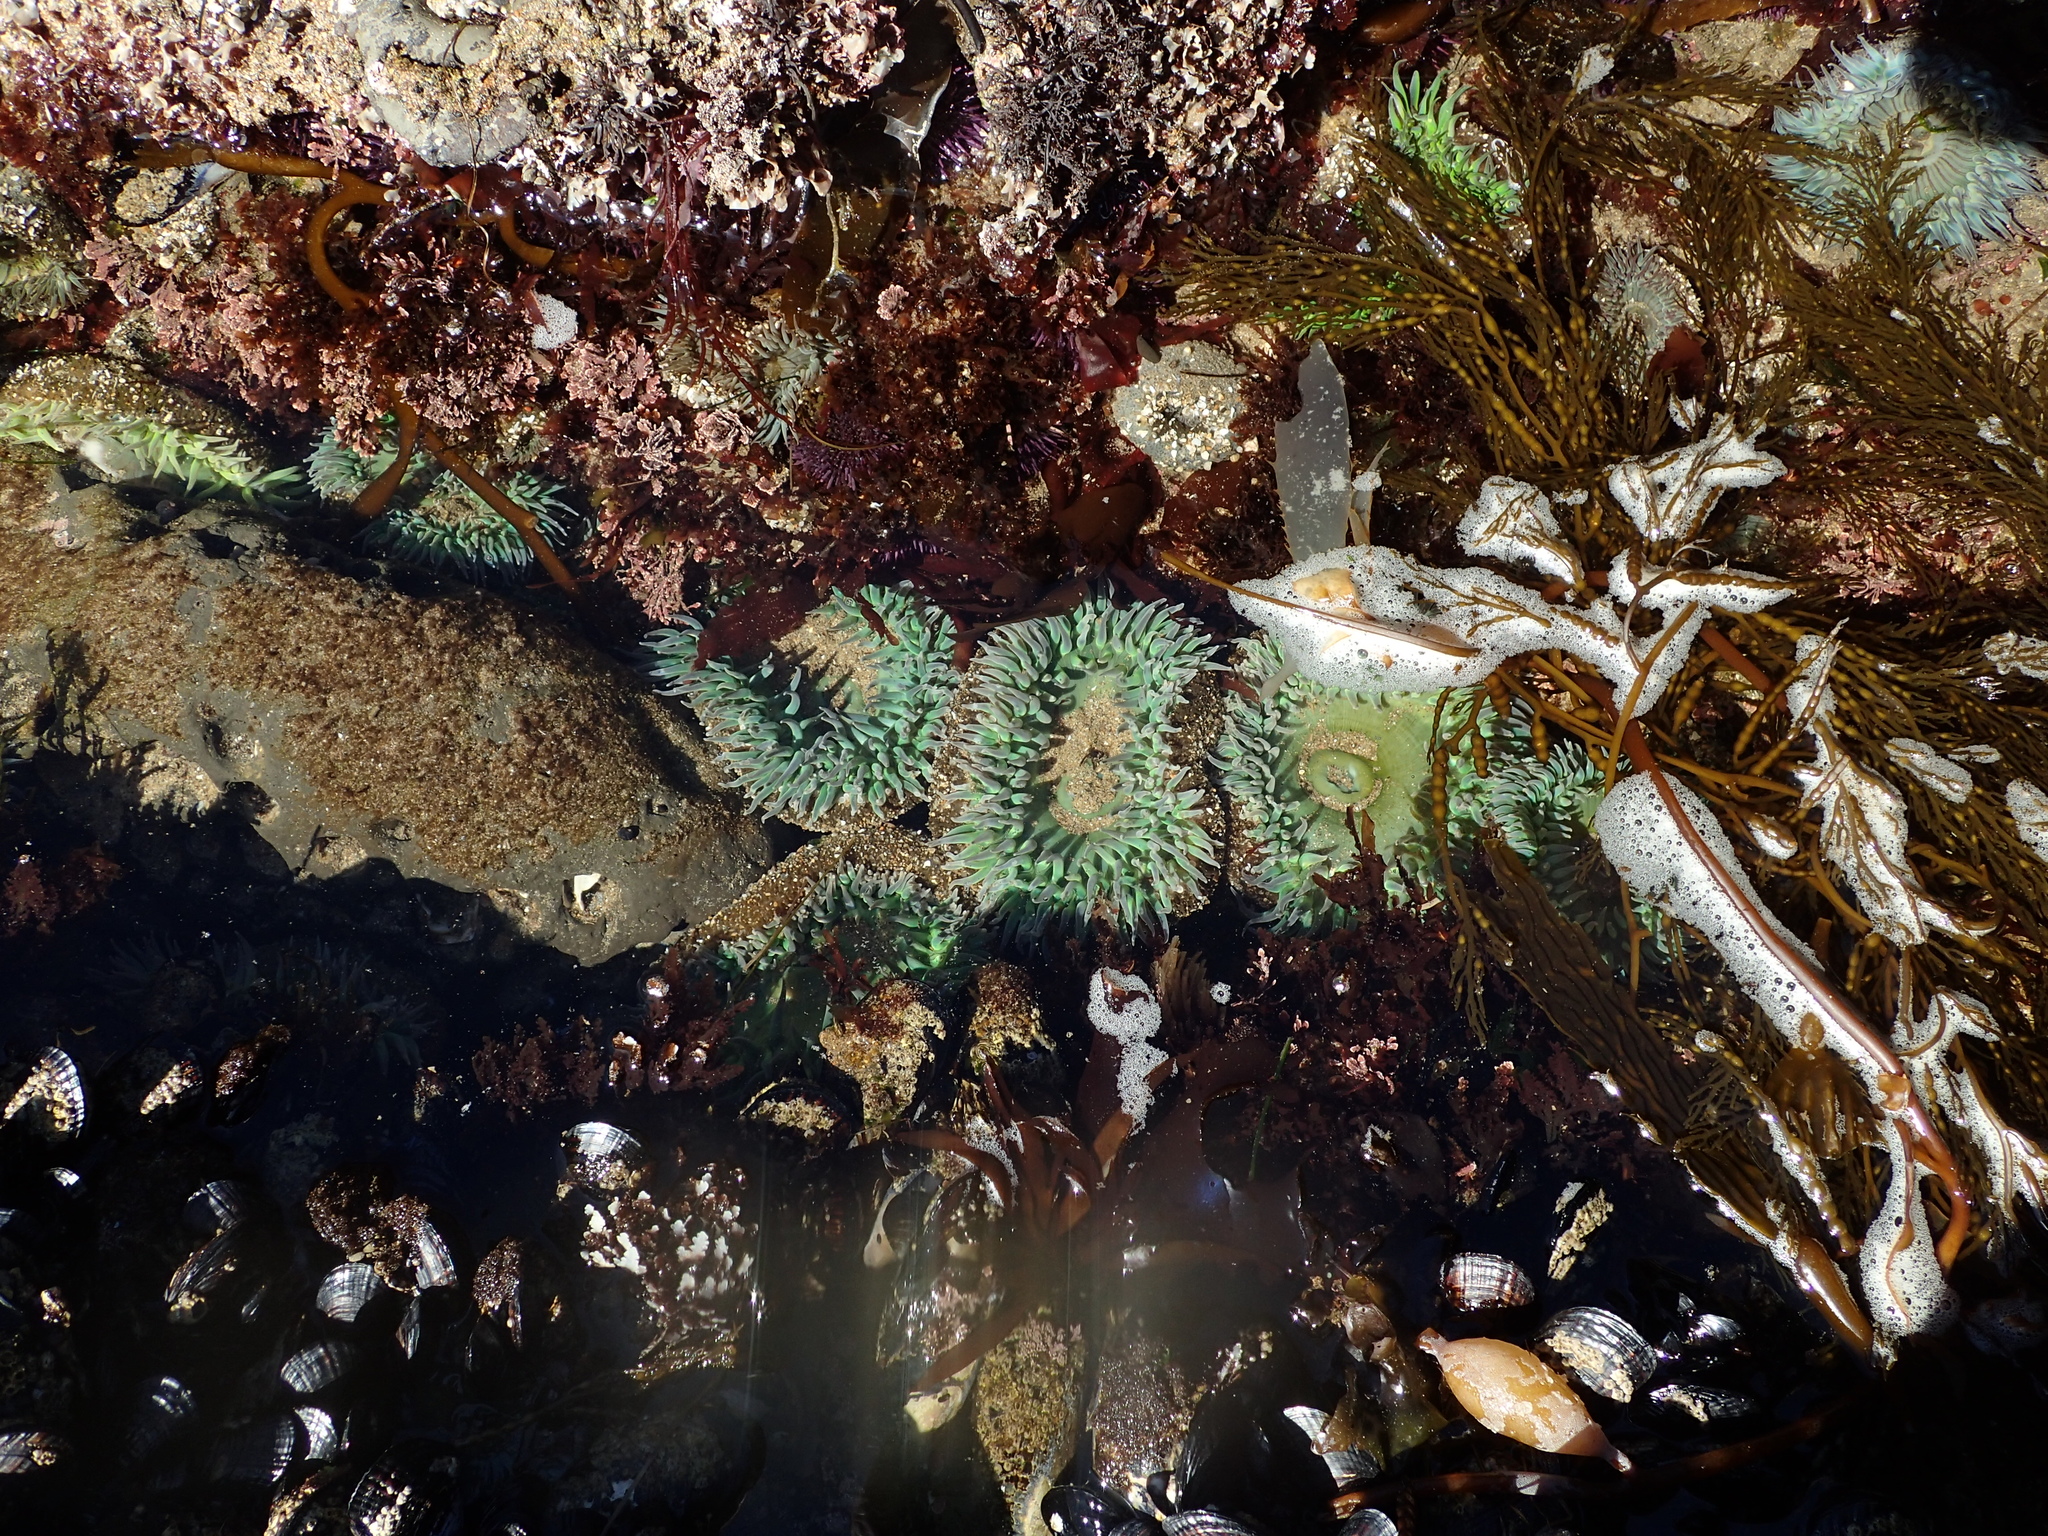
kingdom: Animalia
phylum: Cnidaria
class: Anthozoa
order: Actiniaria
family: Actiniidae
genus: Anthopleura
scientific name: Anthopleura xanthogrammica
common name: Giant green anemone
